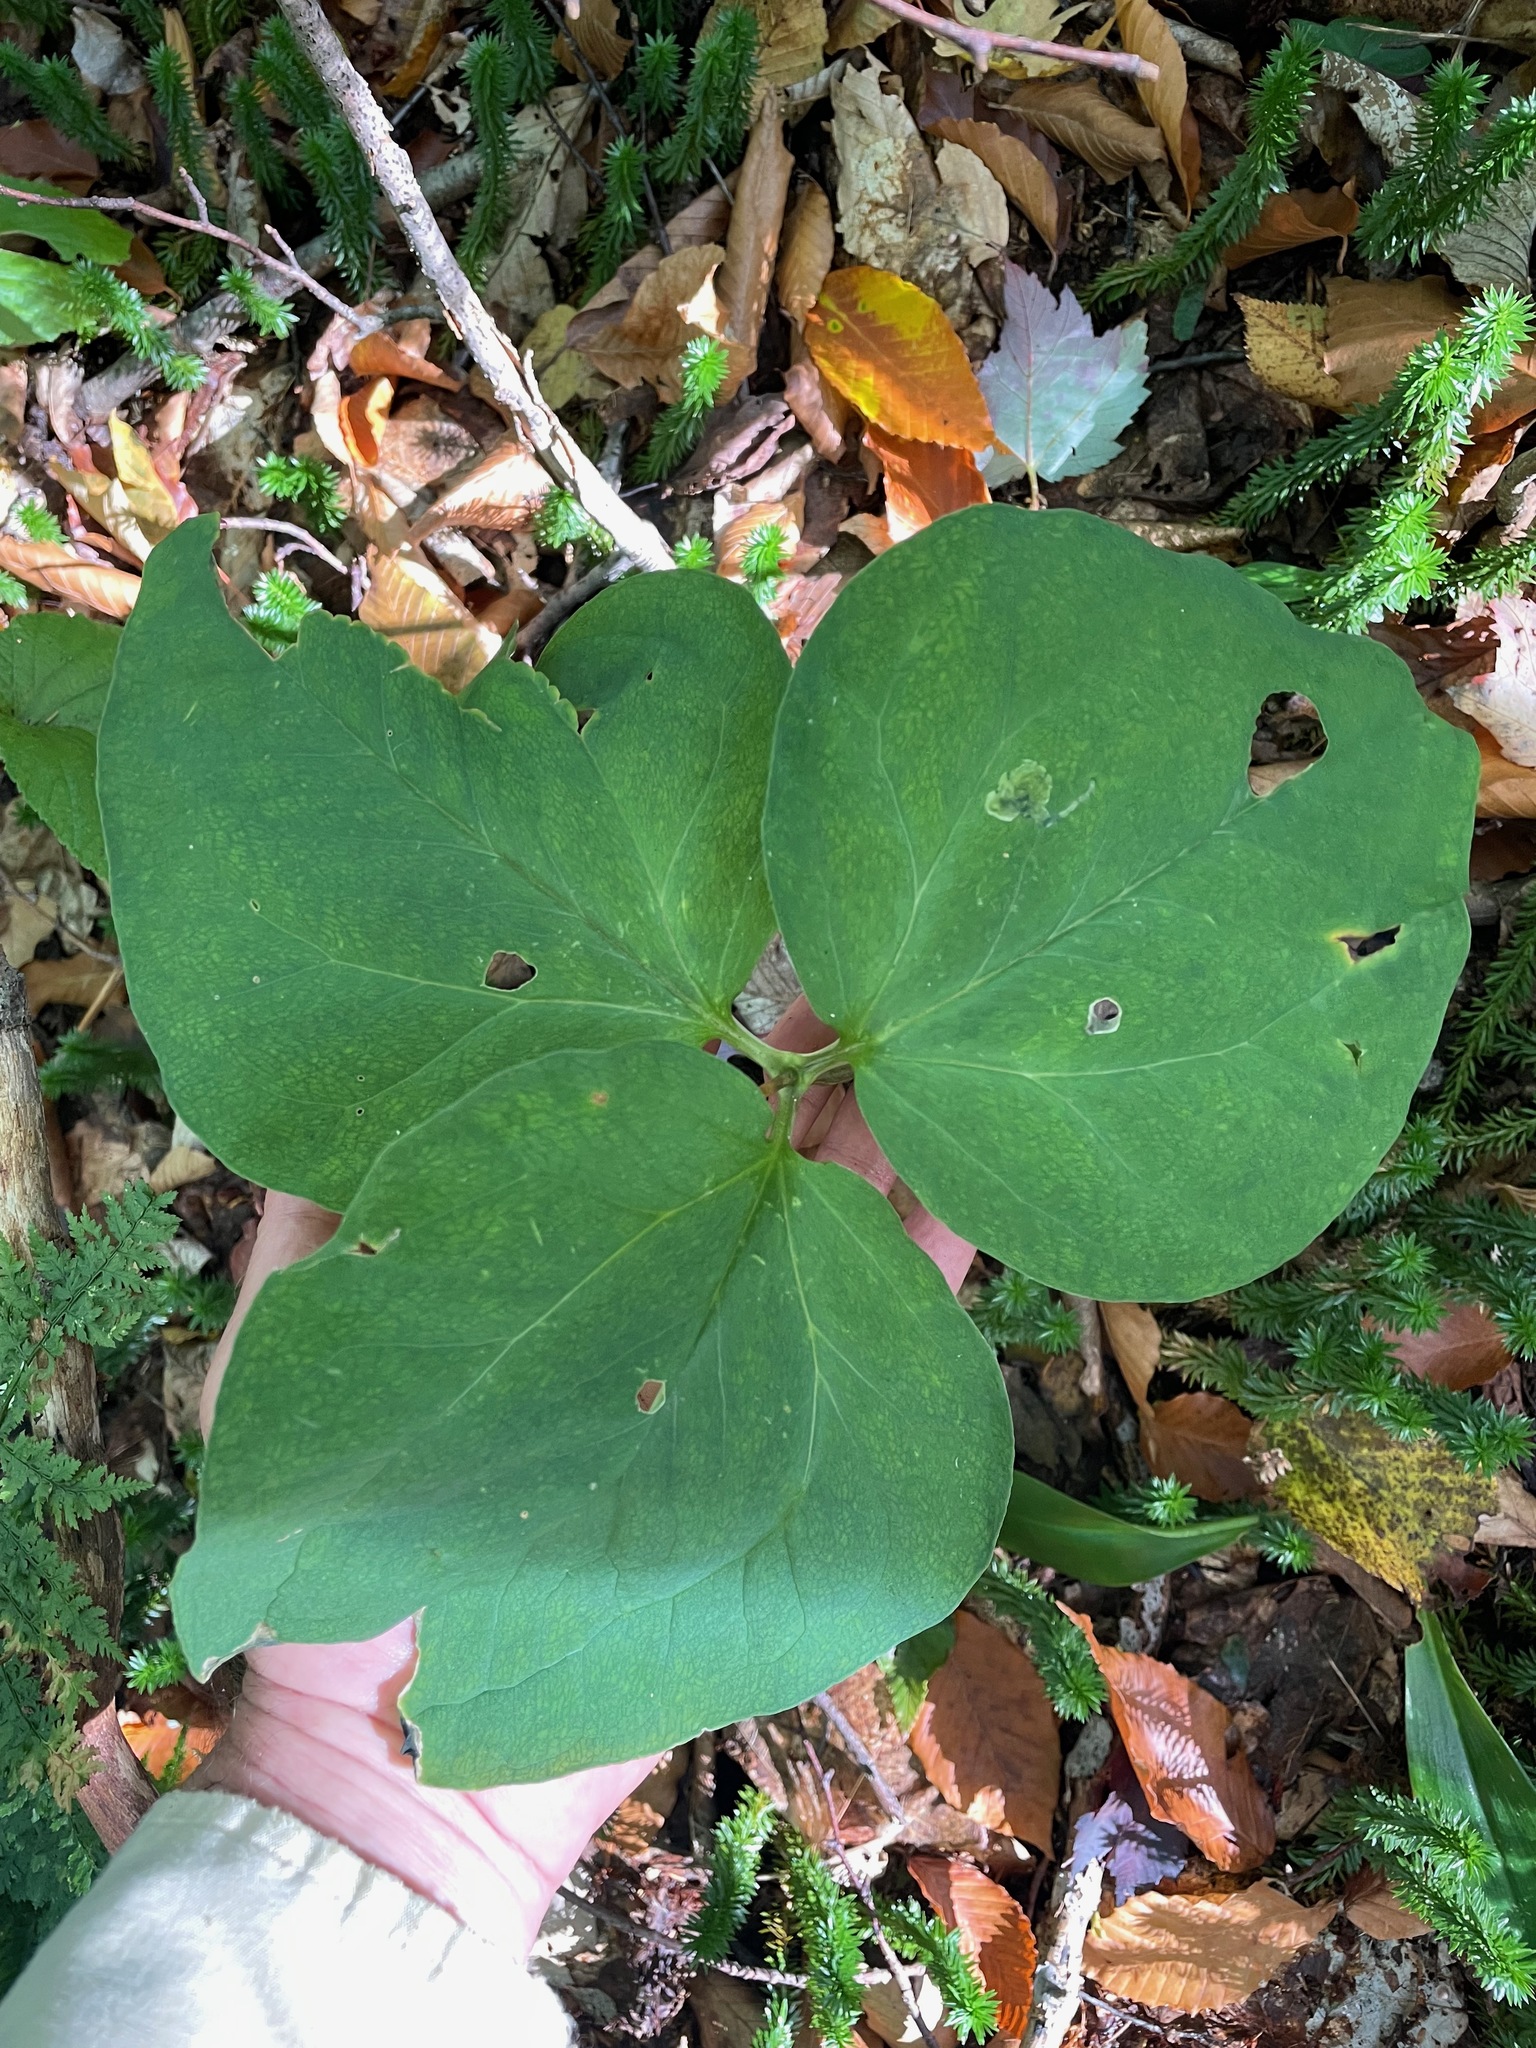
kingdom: Plantae
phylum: Tracheophyta
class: Liliopsida
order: Liliales
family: Melanthiaceae
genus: Trillium
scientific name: Trillium undulatum
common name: Paint trillium
